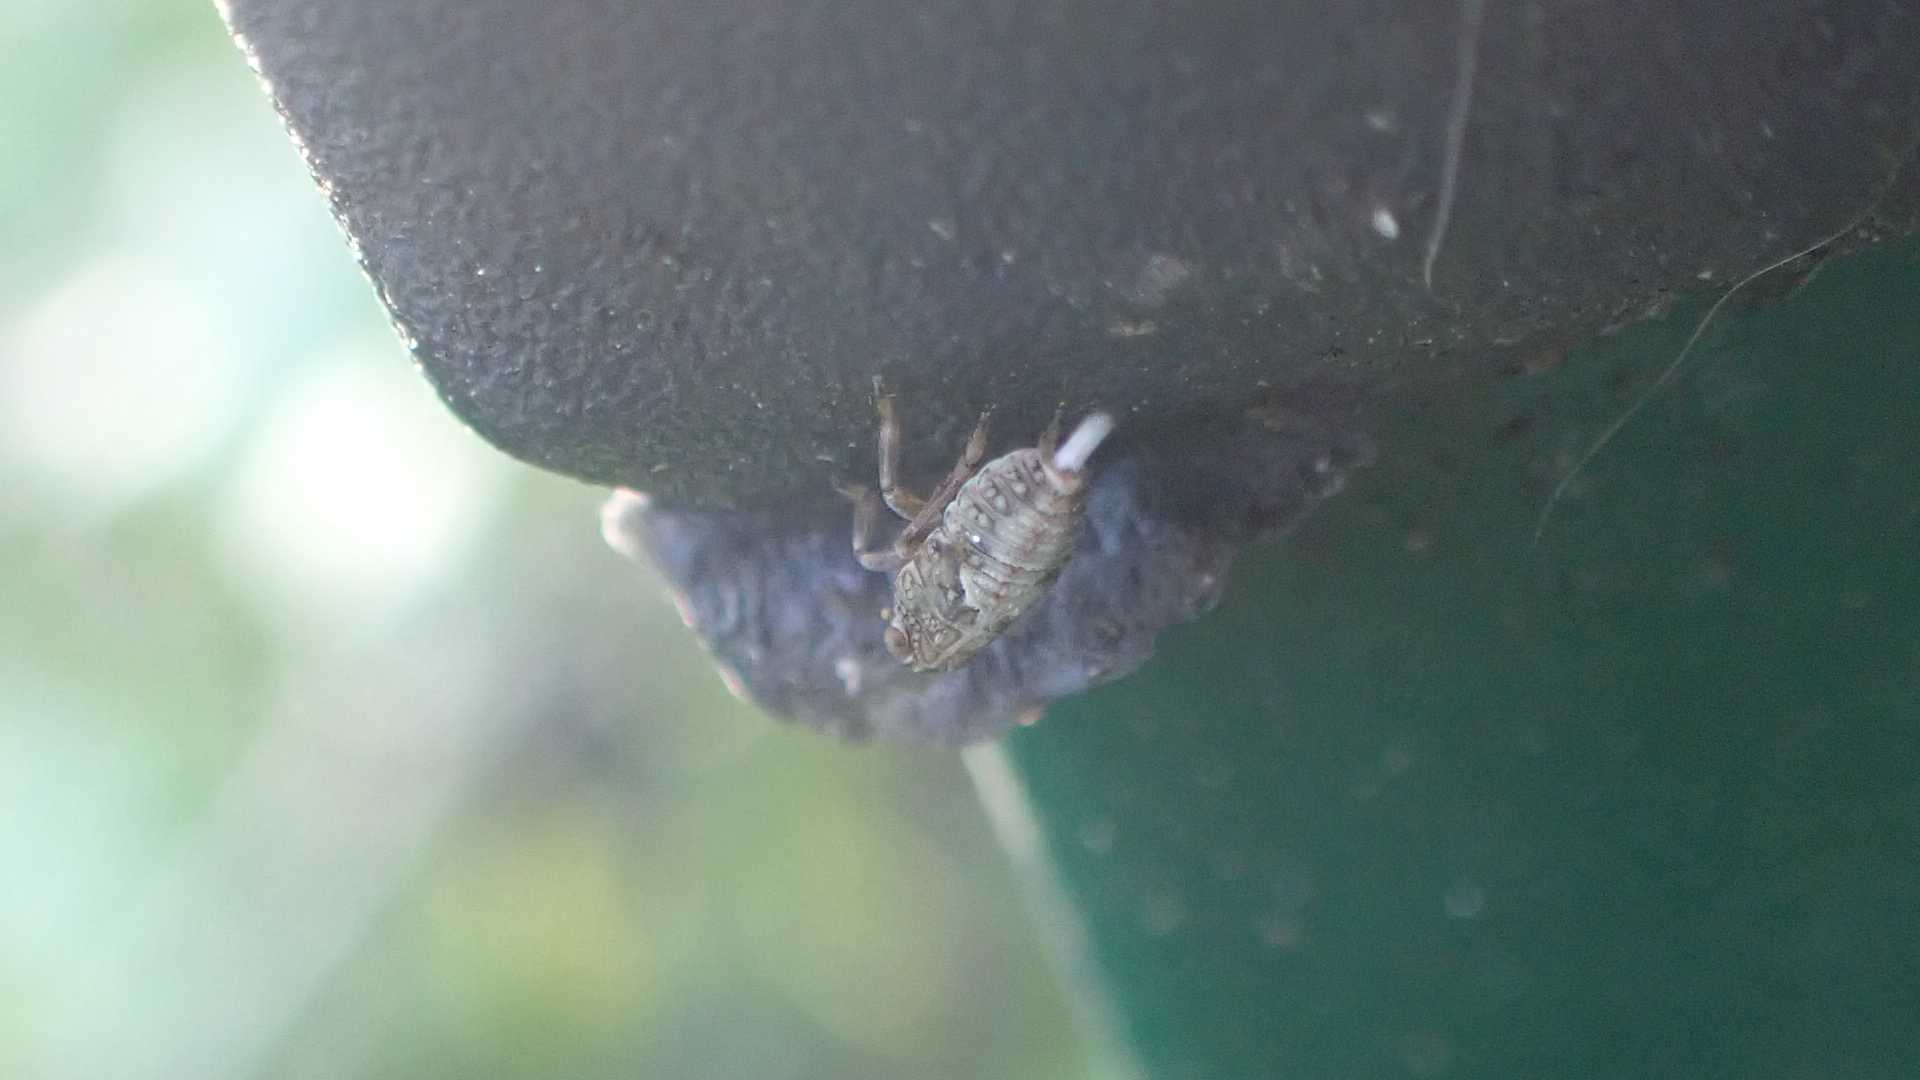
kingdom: Animalia
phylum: Arthropoda
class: Insecta
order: Hemiptera
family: Issidae
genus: Issus
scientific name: Issus
